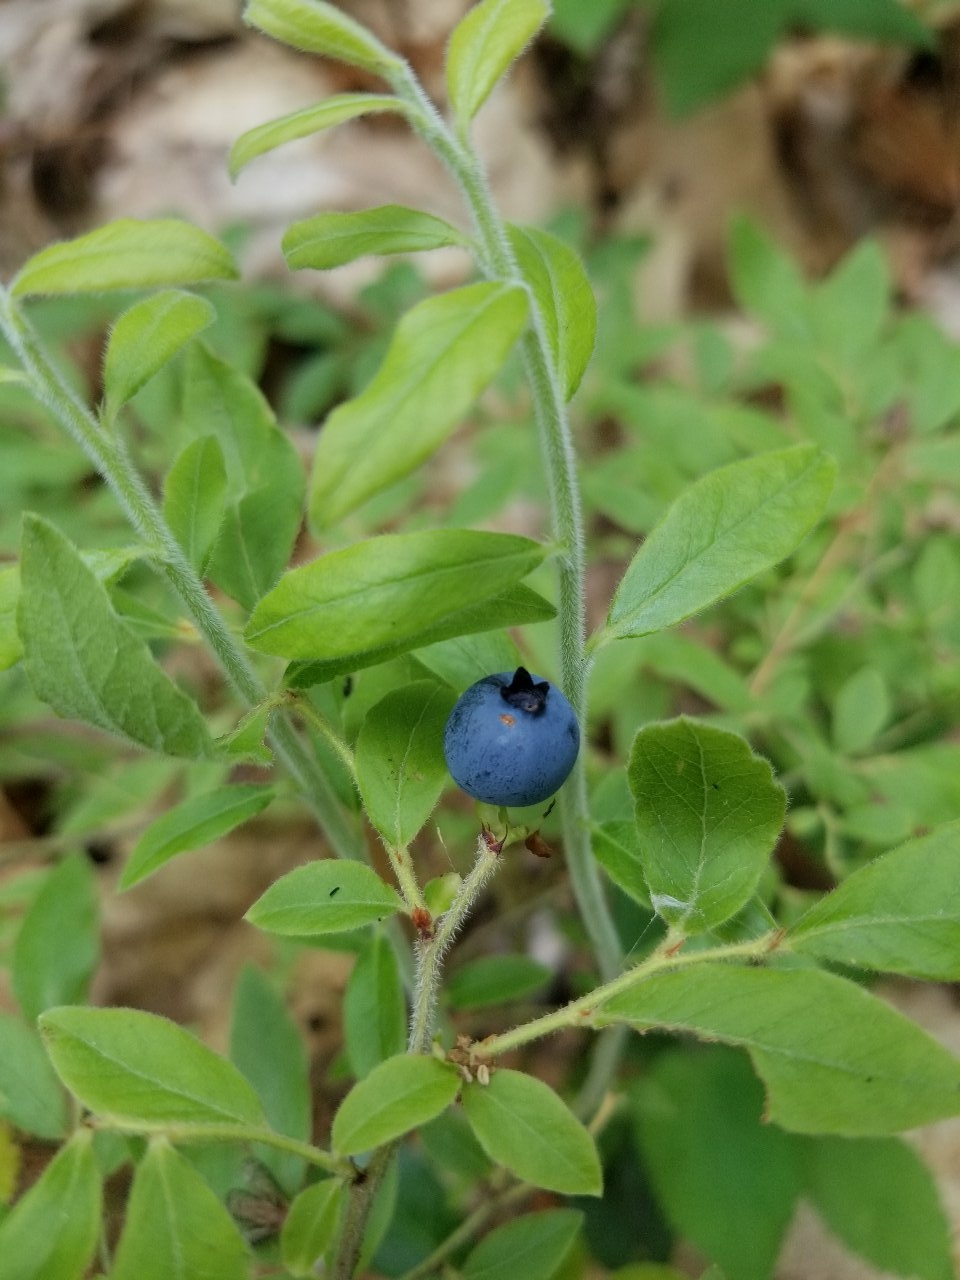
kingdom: Plantae
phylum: Tracheophyta
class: Magnoliopsida
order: Ericales
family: Ericaceae
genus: Vaccinium
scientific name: Vaccinium myrtilloides
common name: Canada blueberry
